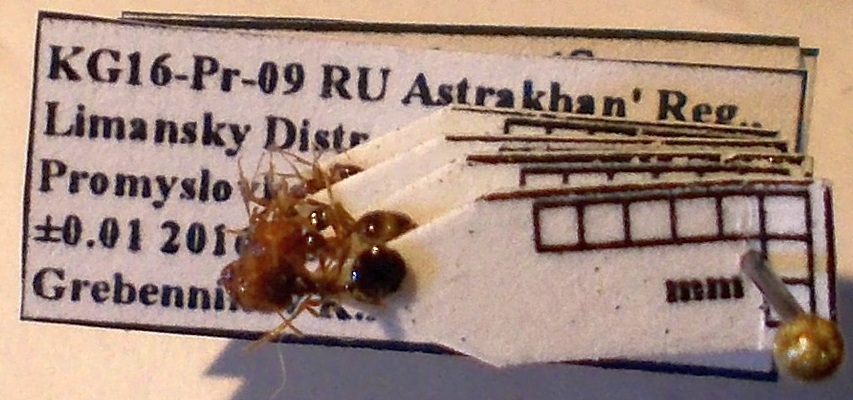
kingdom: Animalia
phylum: Arthropoda
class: Insecta
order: Hymenoptera
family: Formicidae
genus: Pheidole
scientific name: Pheidole pallidula
